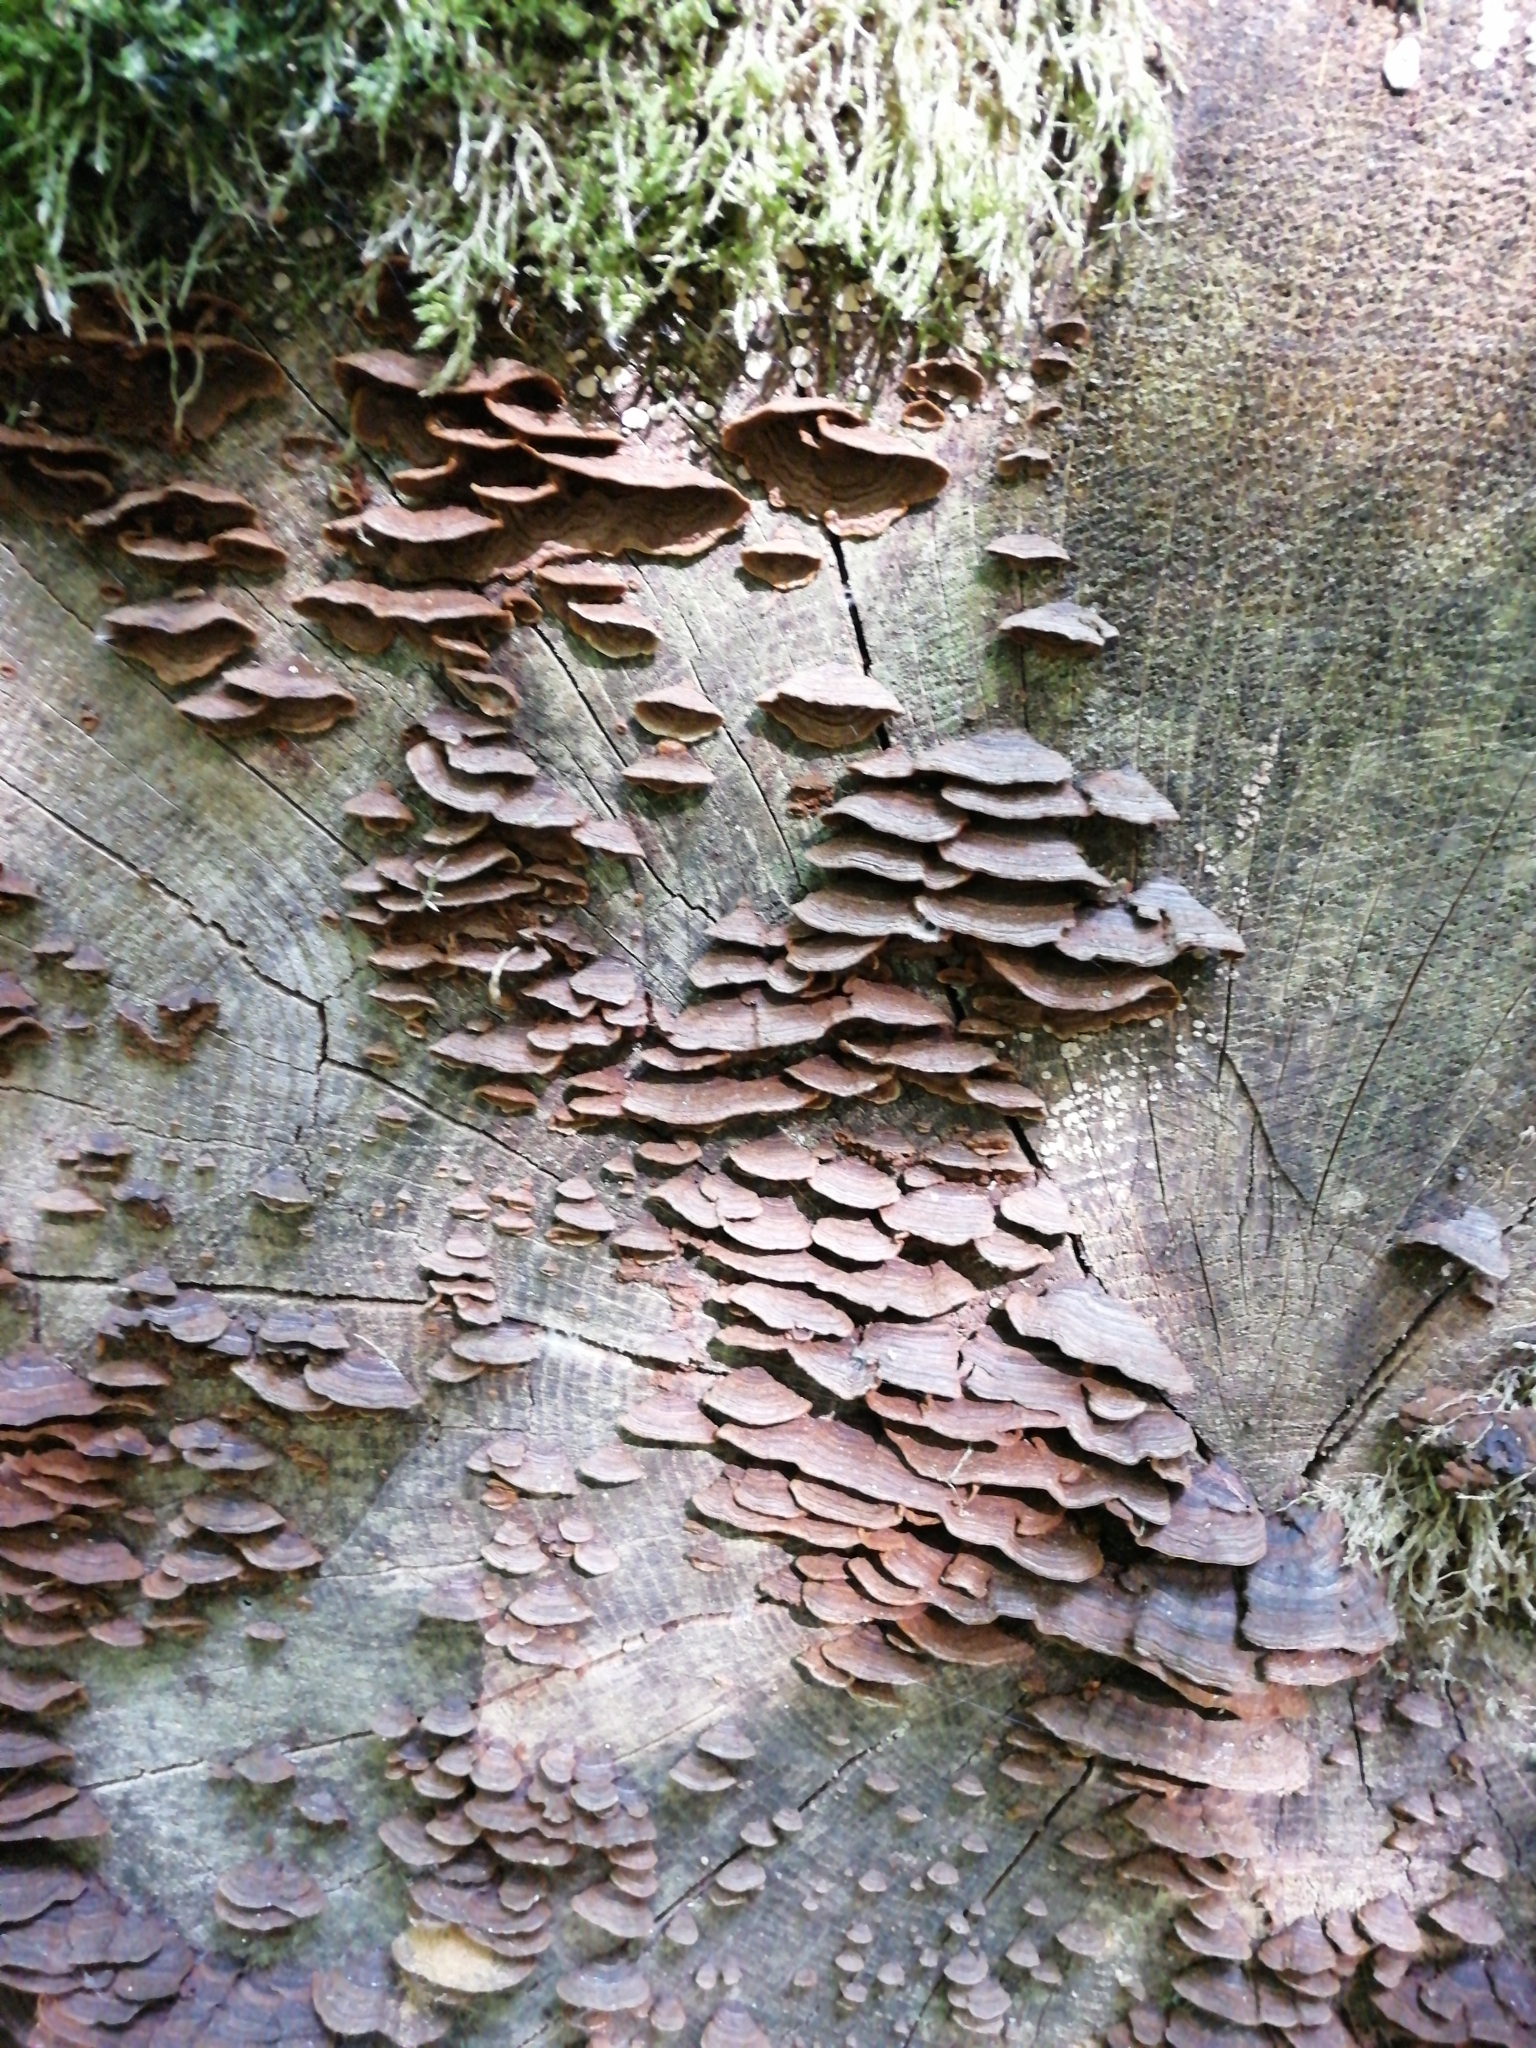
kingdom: Fungi
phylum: Basidiomycota
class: Agaricomycetes
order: Hymenochaetales
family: Hymenochaetaceae
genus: Hymenochaete
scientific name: Hymenochaete rubiginosa
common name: Oak curtain crust
